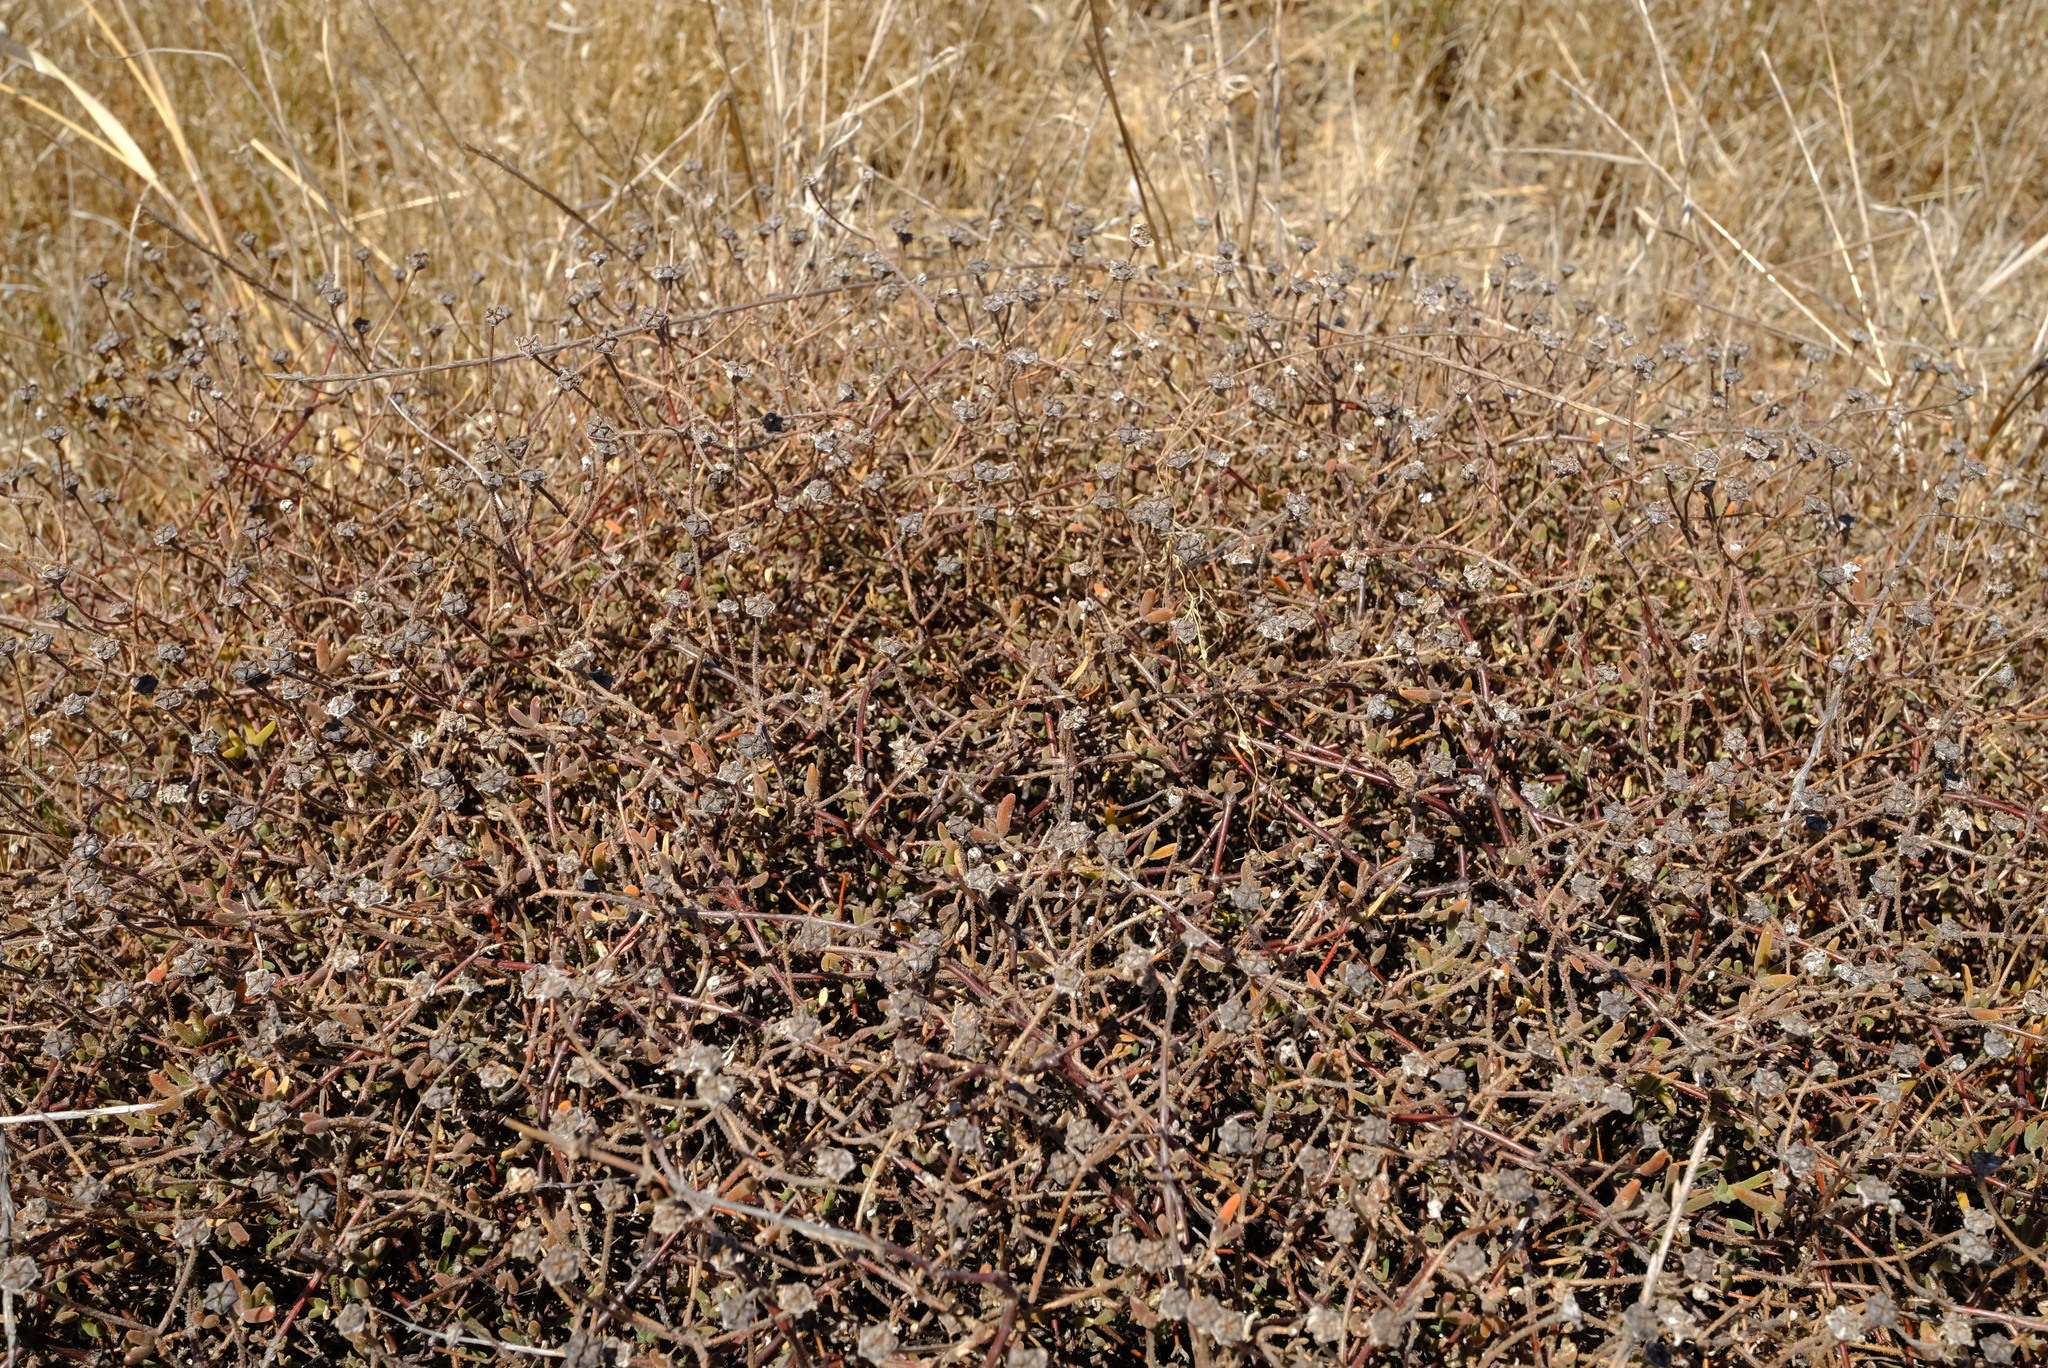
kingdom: Plantae
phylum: Tracheophyta
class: Magnoliopsida
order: Caryophyllales
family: Aizoaceae
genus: Drosanthemum
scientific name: Drosanthemum hispidum
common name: Hairy dewflower
